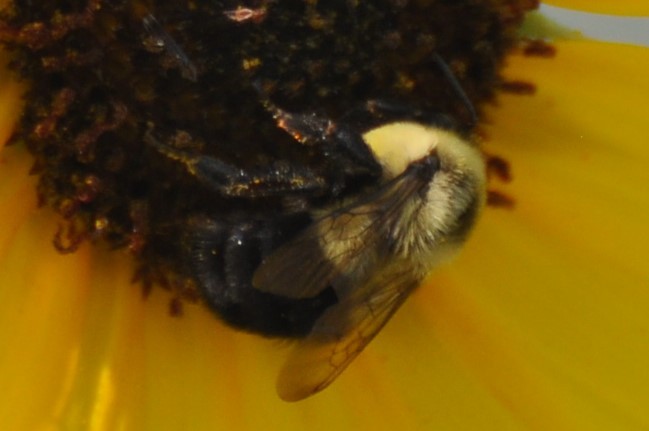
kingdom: Animalia
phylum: Arthropoda
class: Insecta
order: Hymenoptera
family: Apidae
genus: Bombus
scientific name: Bombus impatiens
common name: Common eastern bumble bee
